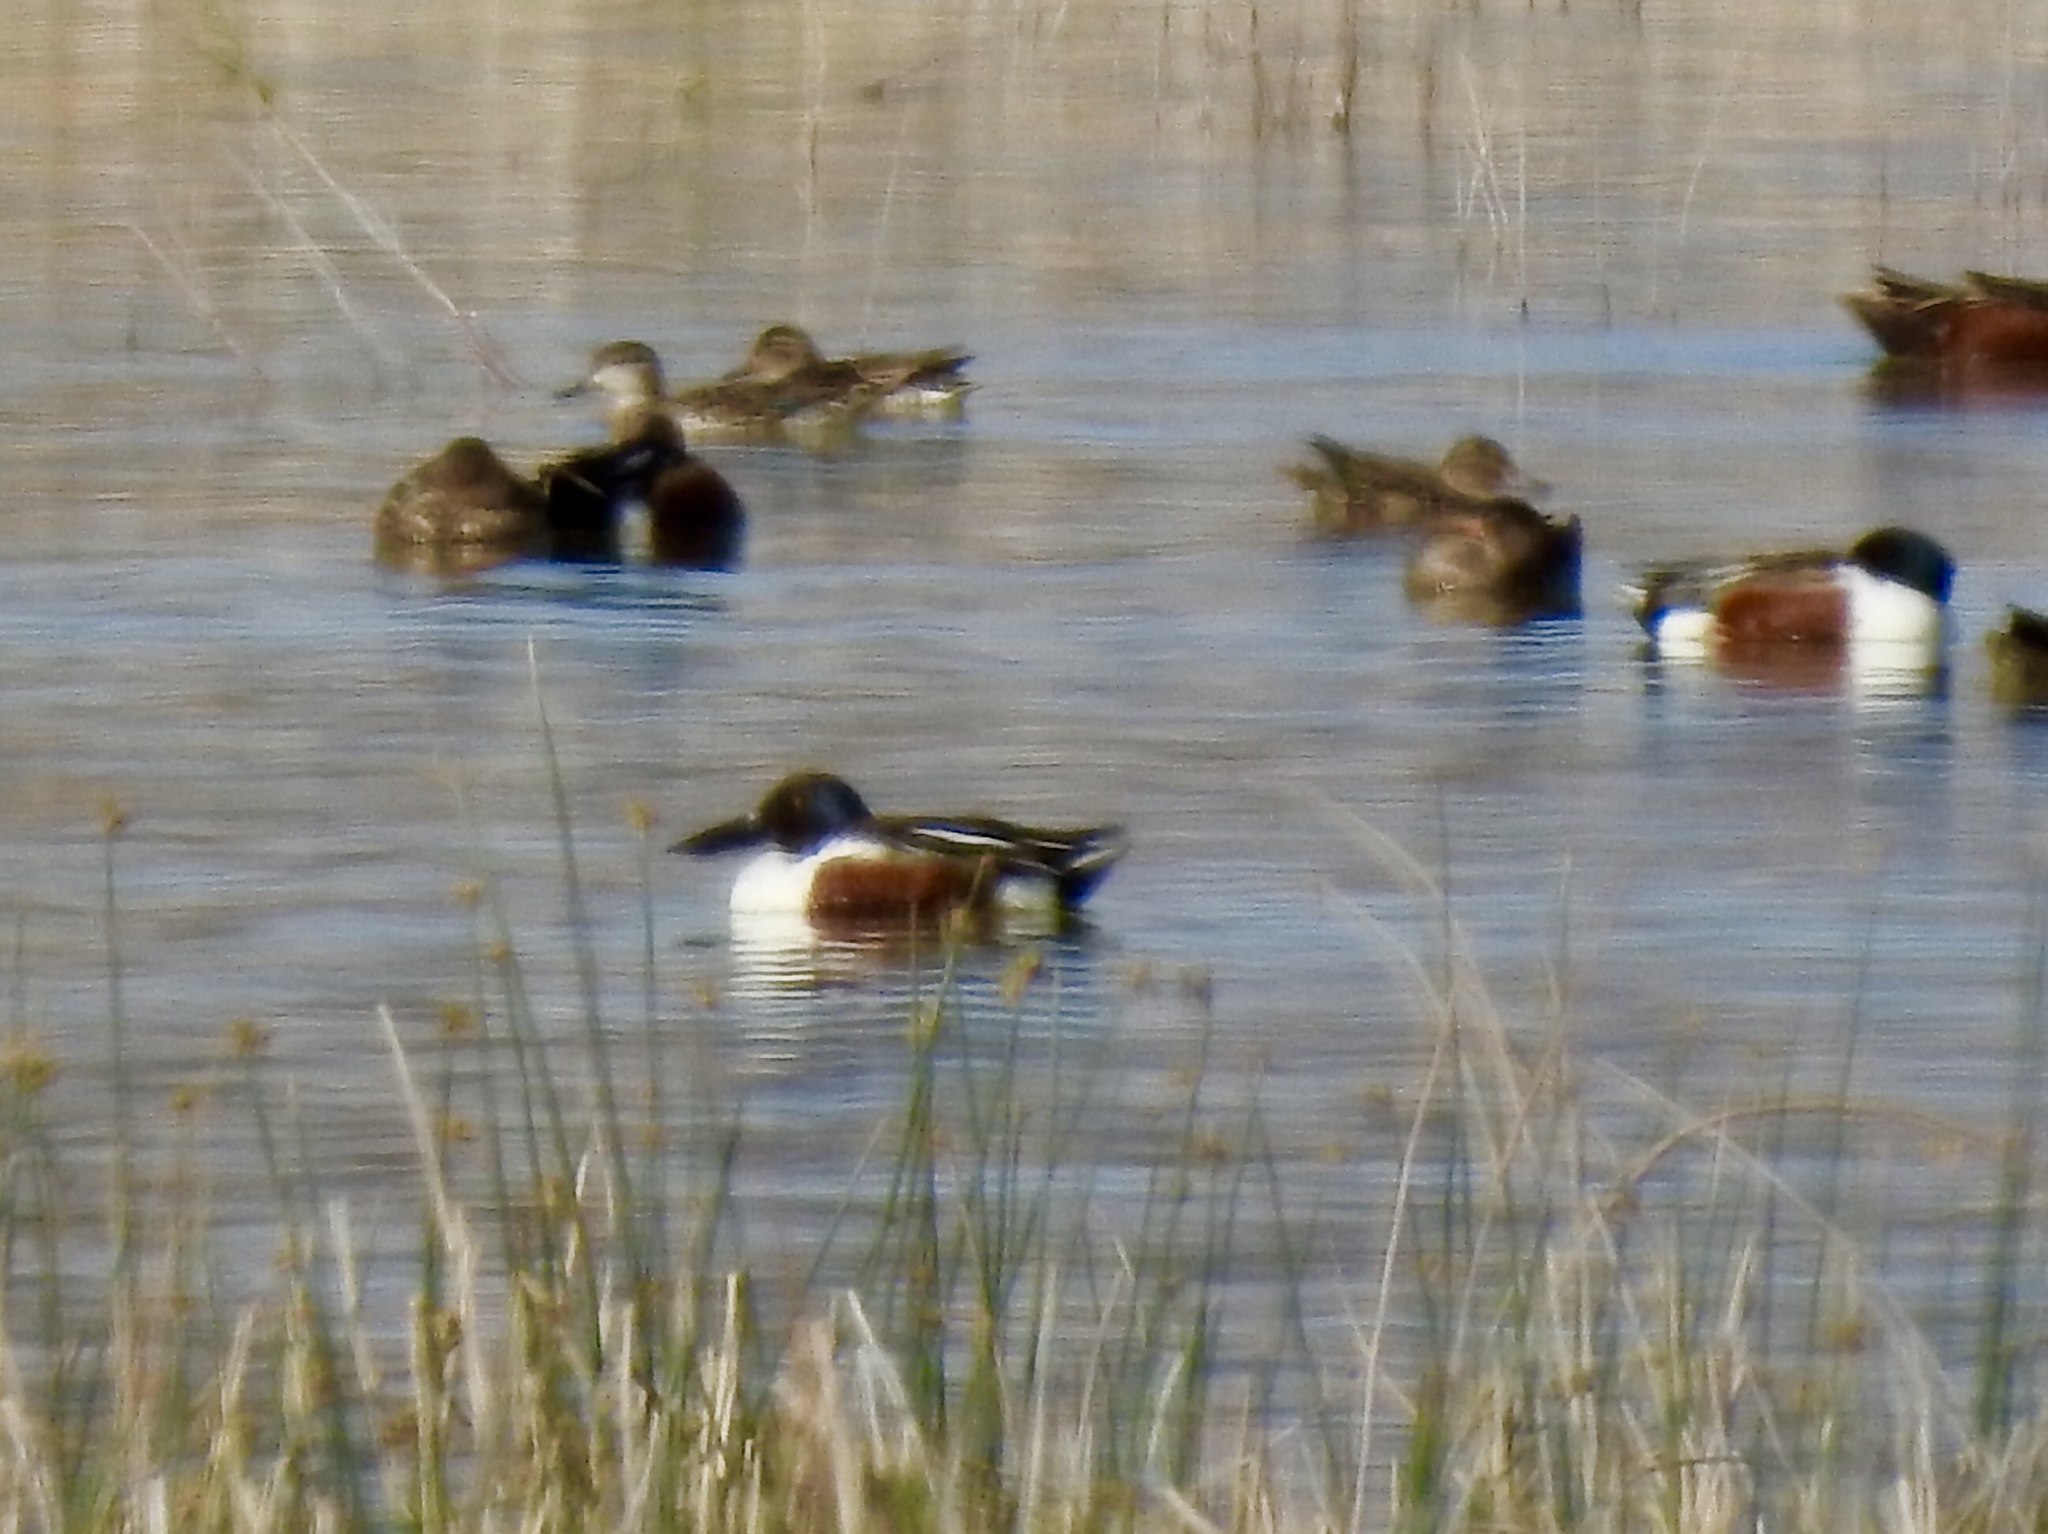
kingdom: Animalia
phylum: Chordata
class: Aves
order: Anseriformes
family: Anatidae
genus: Spatula
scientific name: Spatula clypeata
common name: Northern shoveler
